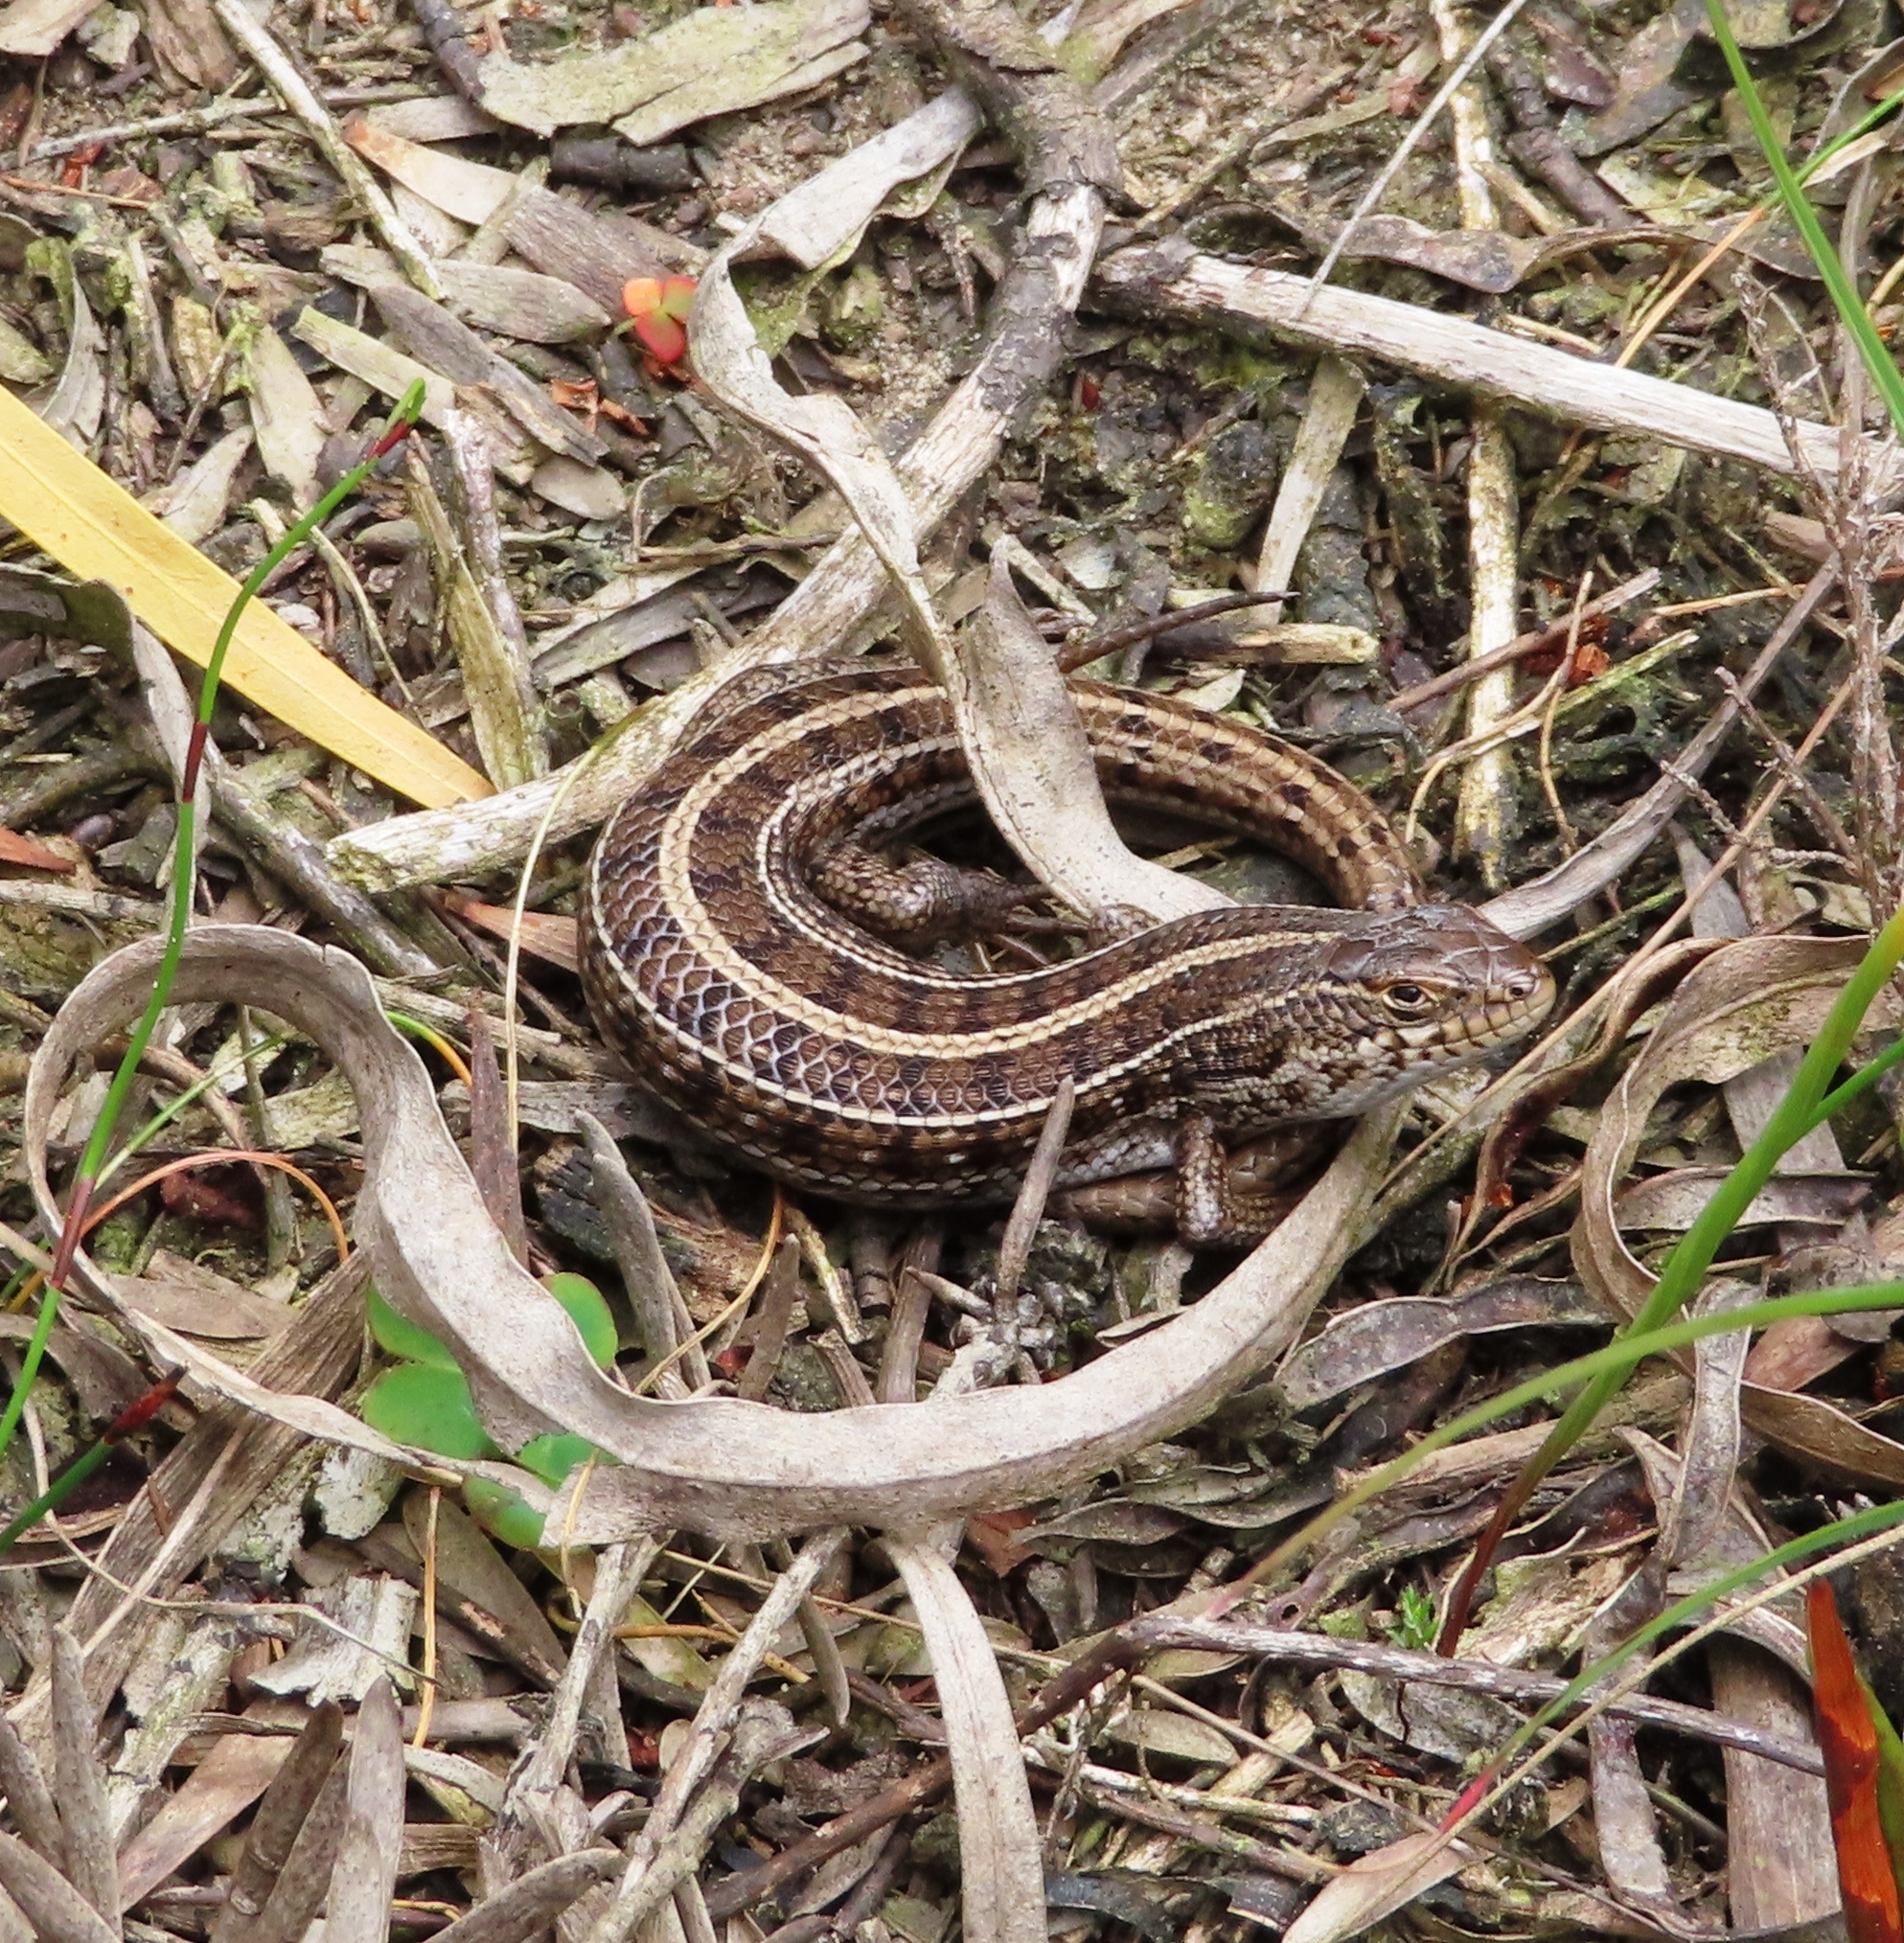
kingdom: Animalia
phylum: Chordata
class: Squamata
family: Scincidae
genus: Trachylepis
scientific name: Trachylepis capensis
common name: Cape skink
